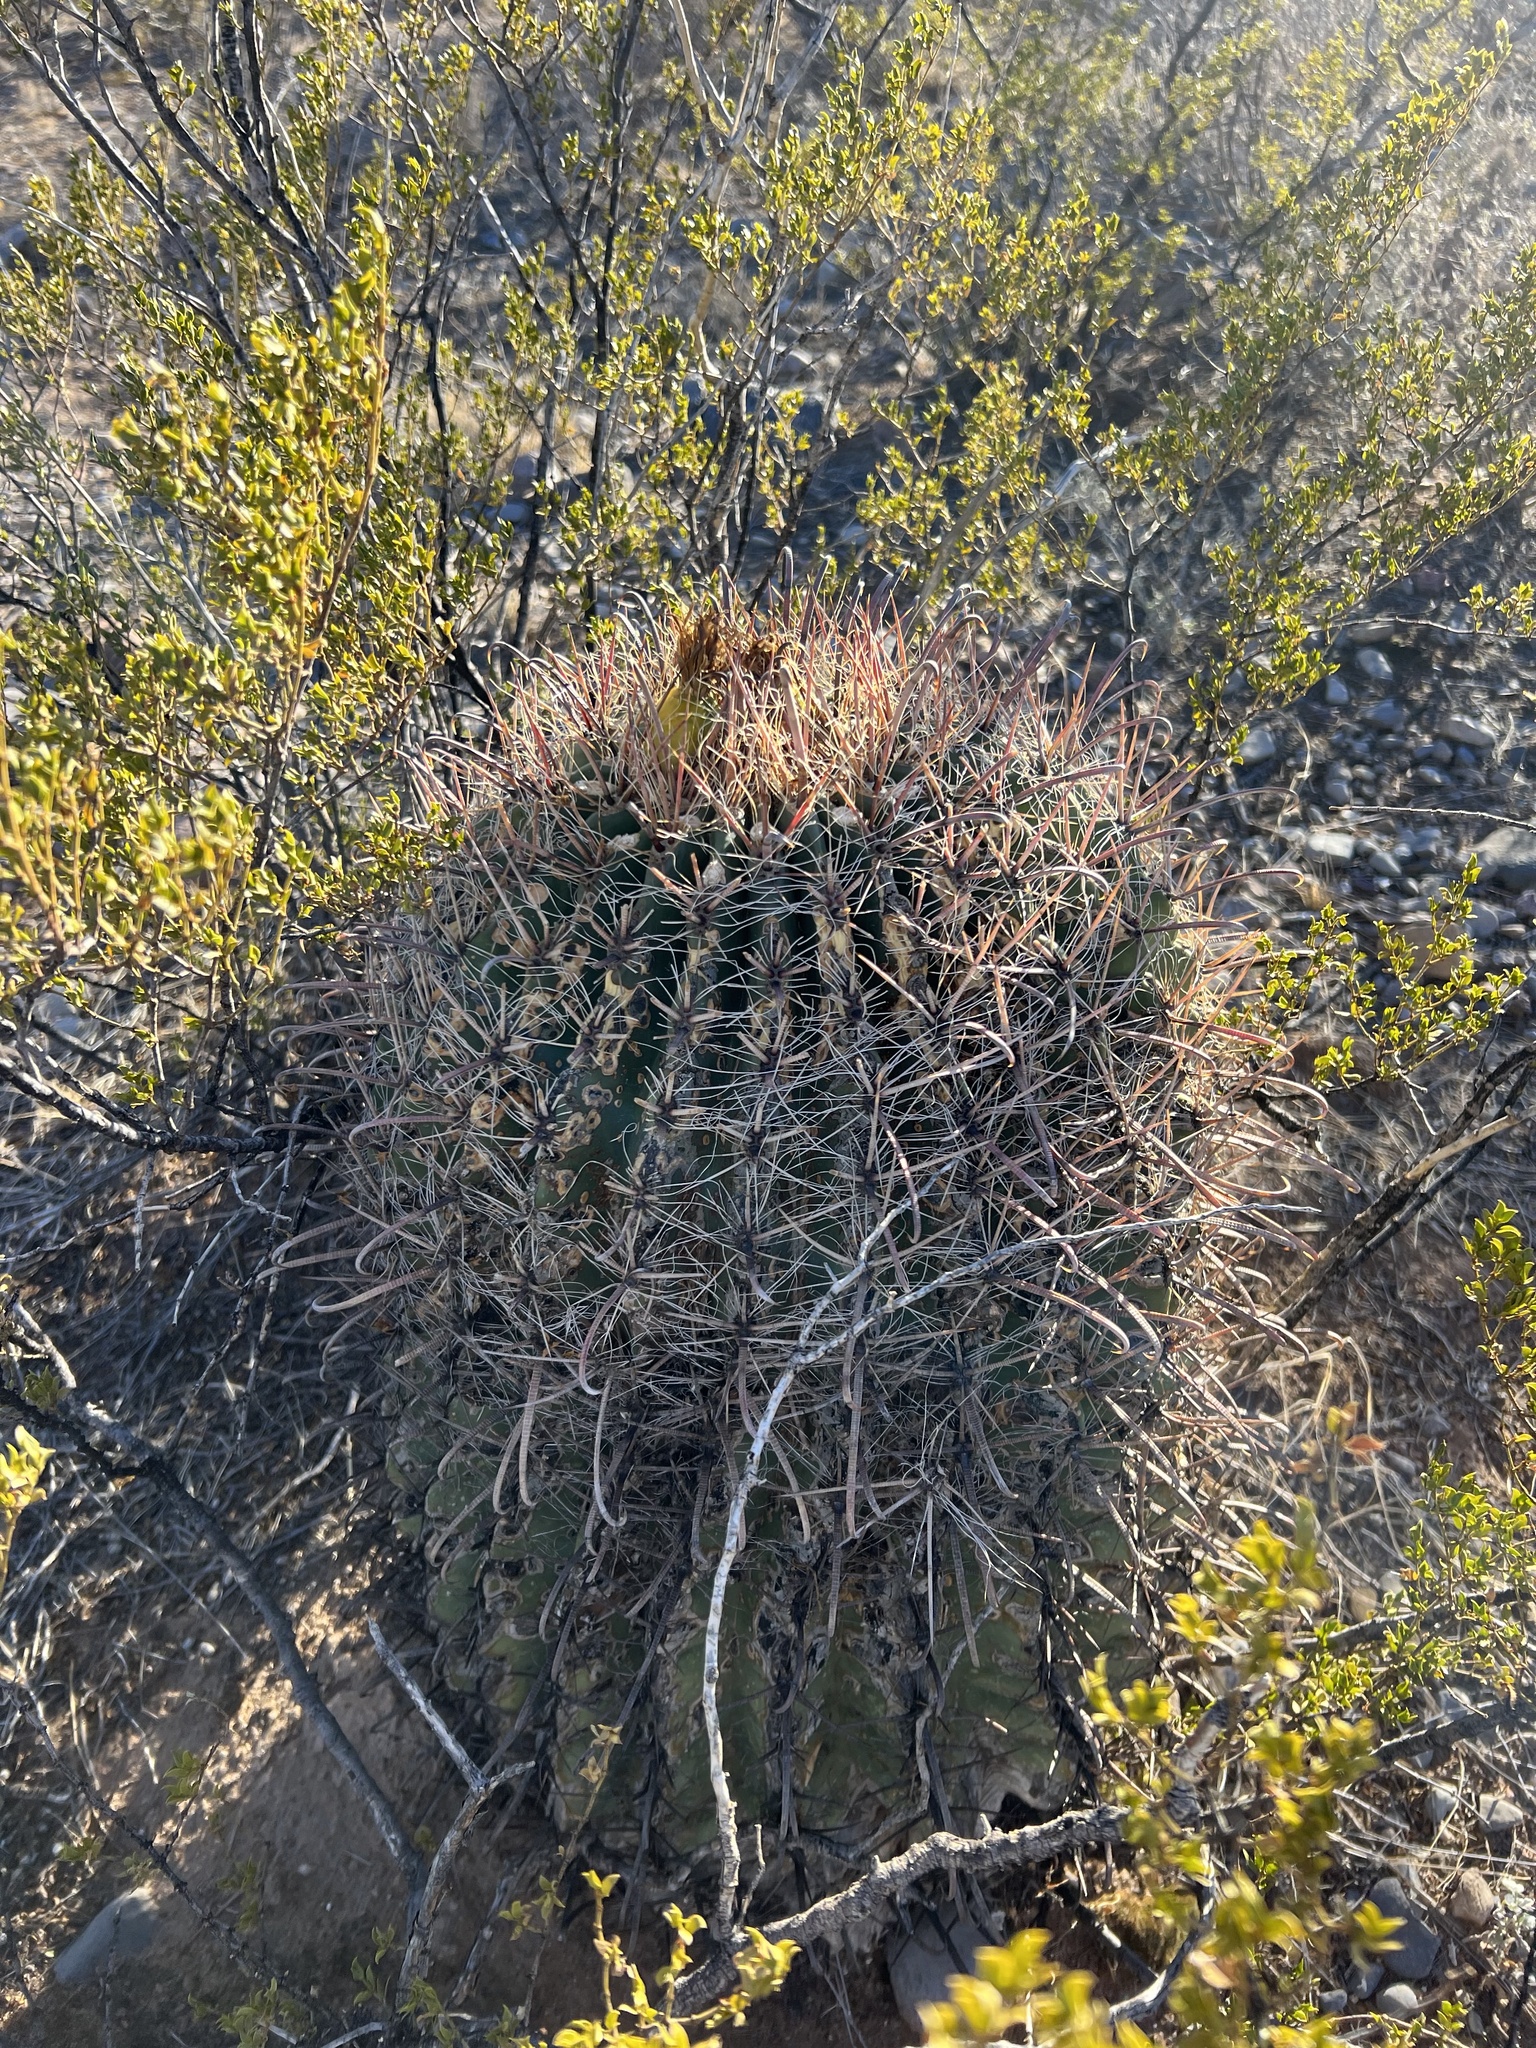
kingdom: Plantae
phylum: Tracheophyta
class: Magnoliopsida
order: Caryophyllales
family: Cactaceae
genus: Ferocactus
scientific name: Ferocactus wislizeni
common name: Candy barrel cactus
